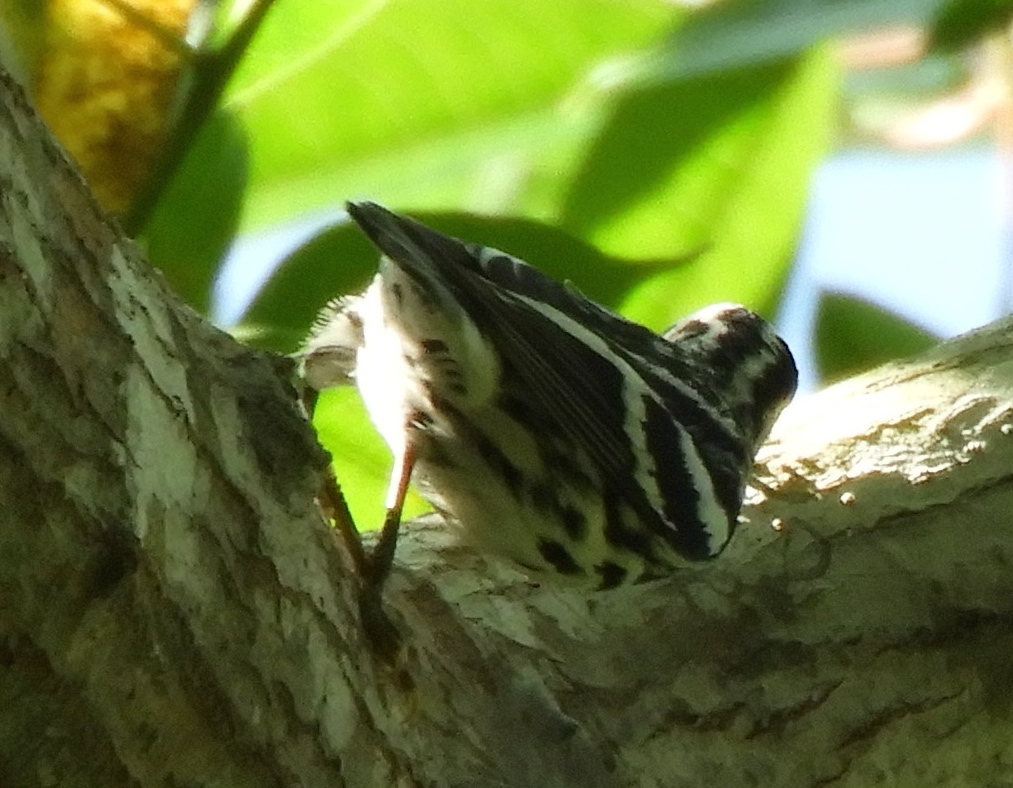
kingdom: Animalia
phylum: Chordata
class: Aves
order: Passeriformes
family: Parulidae
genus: Mniotilta
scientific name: Mniotilta varia
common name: Black-and-white warbler
